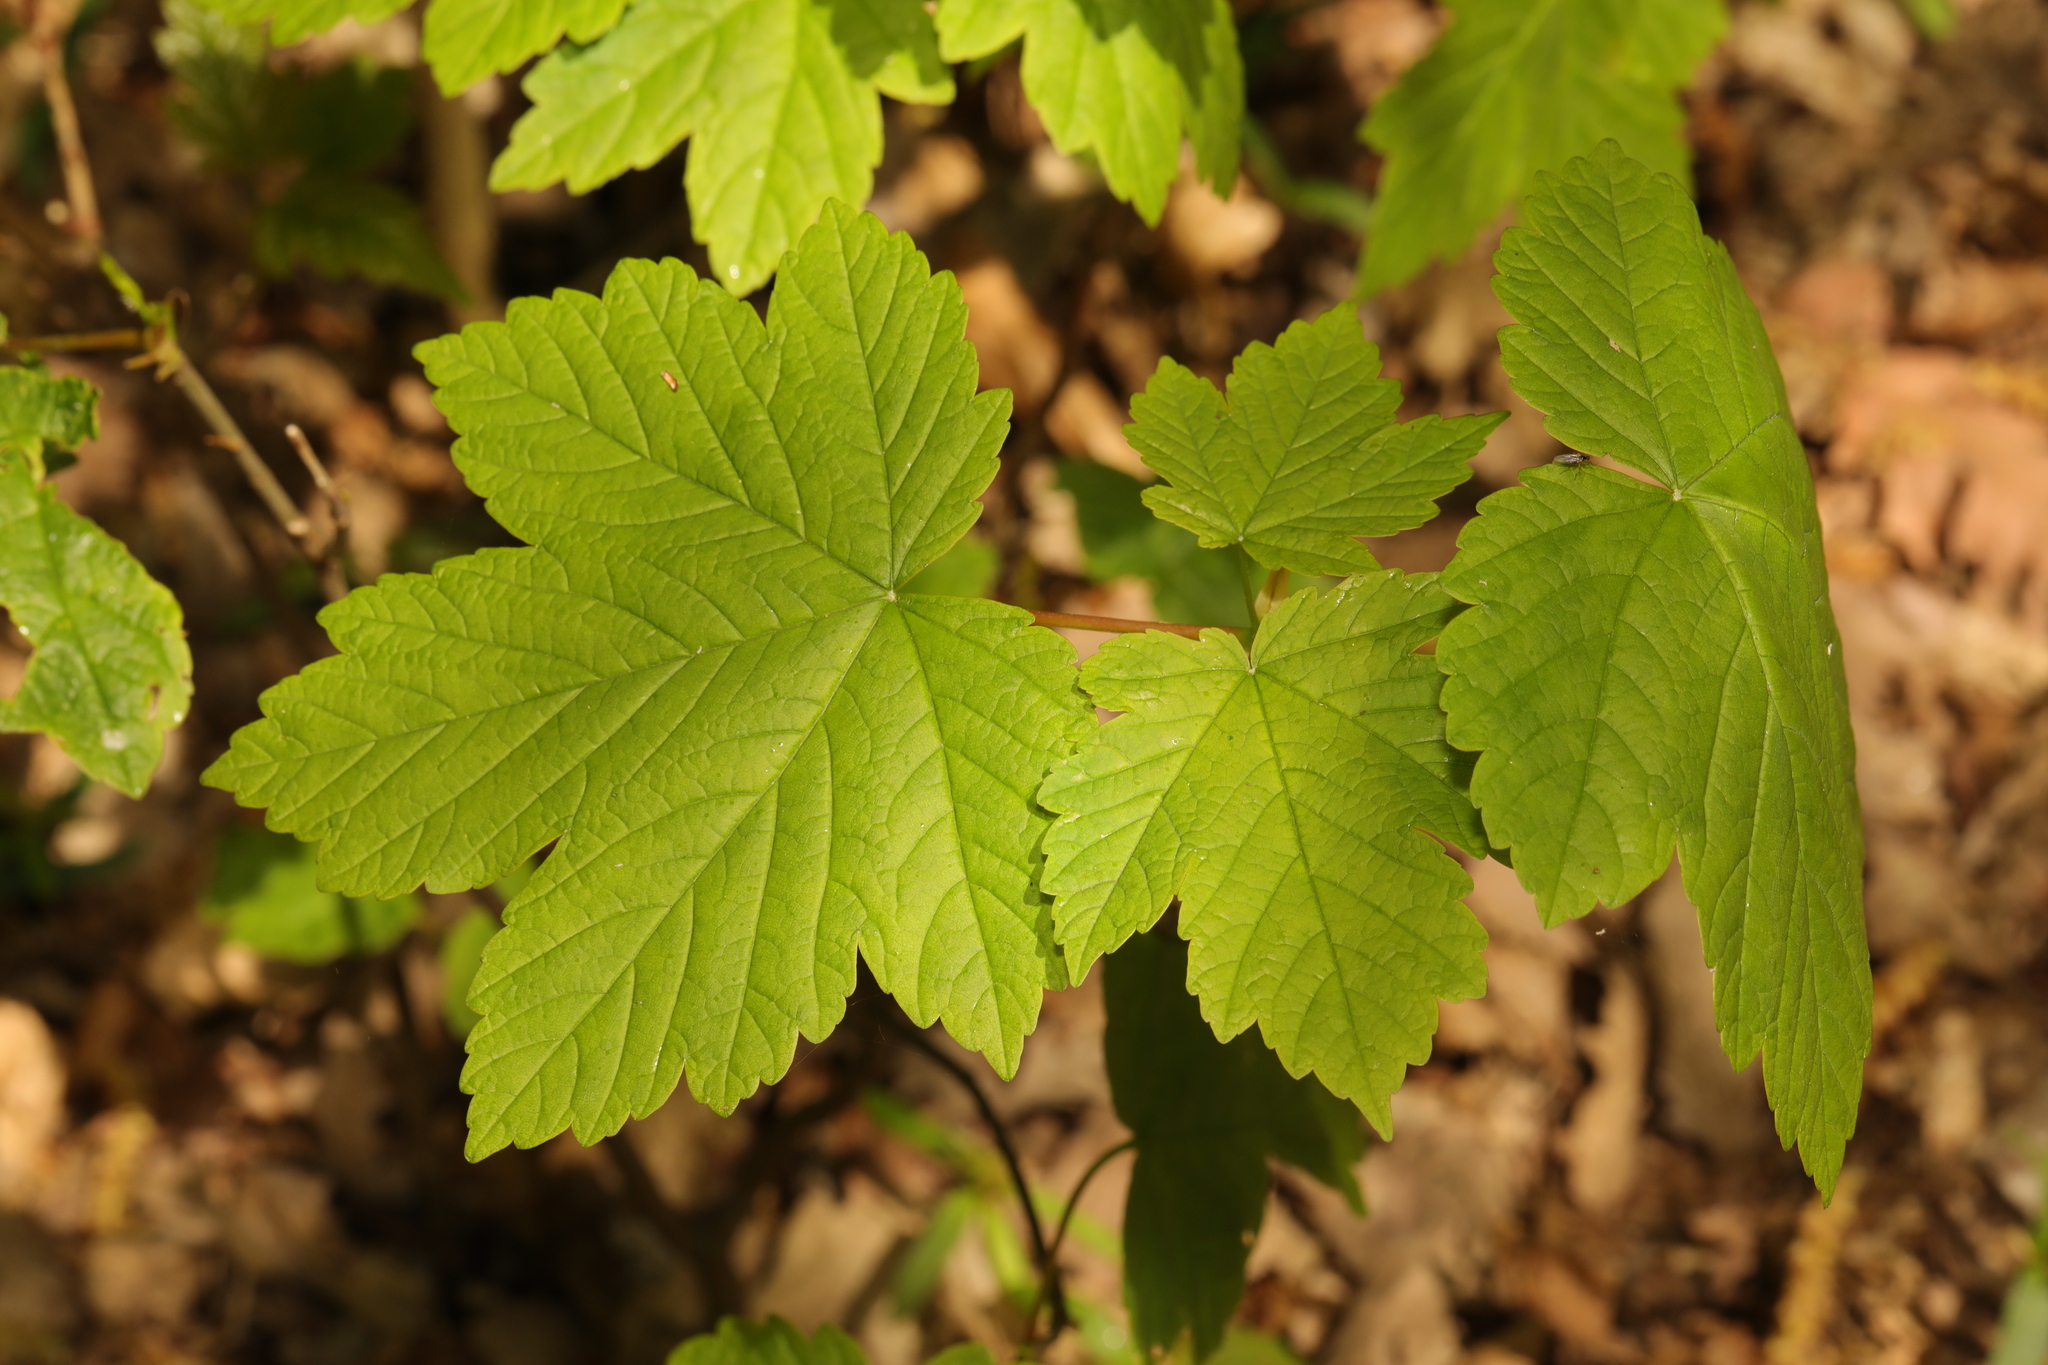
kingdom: Plantae
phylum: Tracheophyta
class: Magnoliopsida
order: Sapindales
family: Sapindaceae
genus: Acer
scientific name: Acer pseudoplatanus
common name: Sycamore
